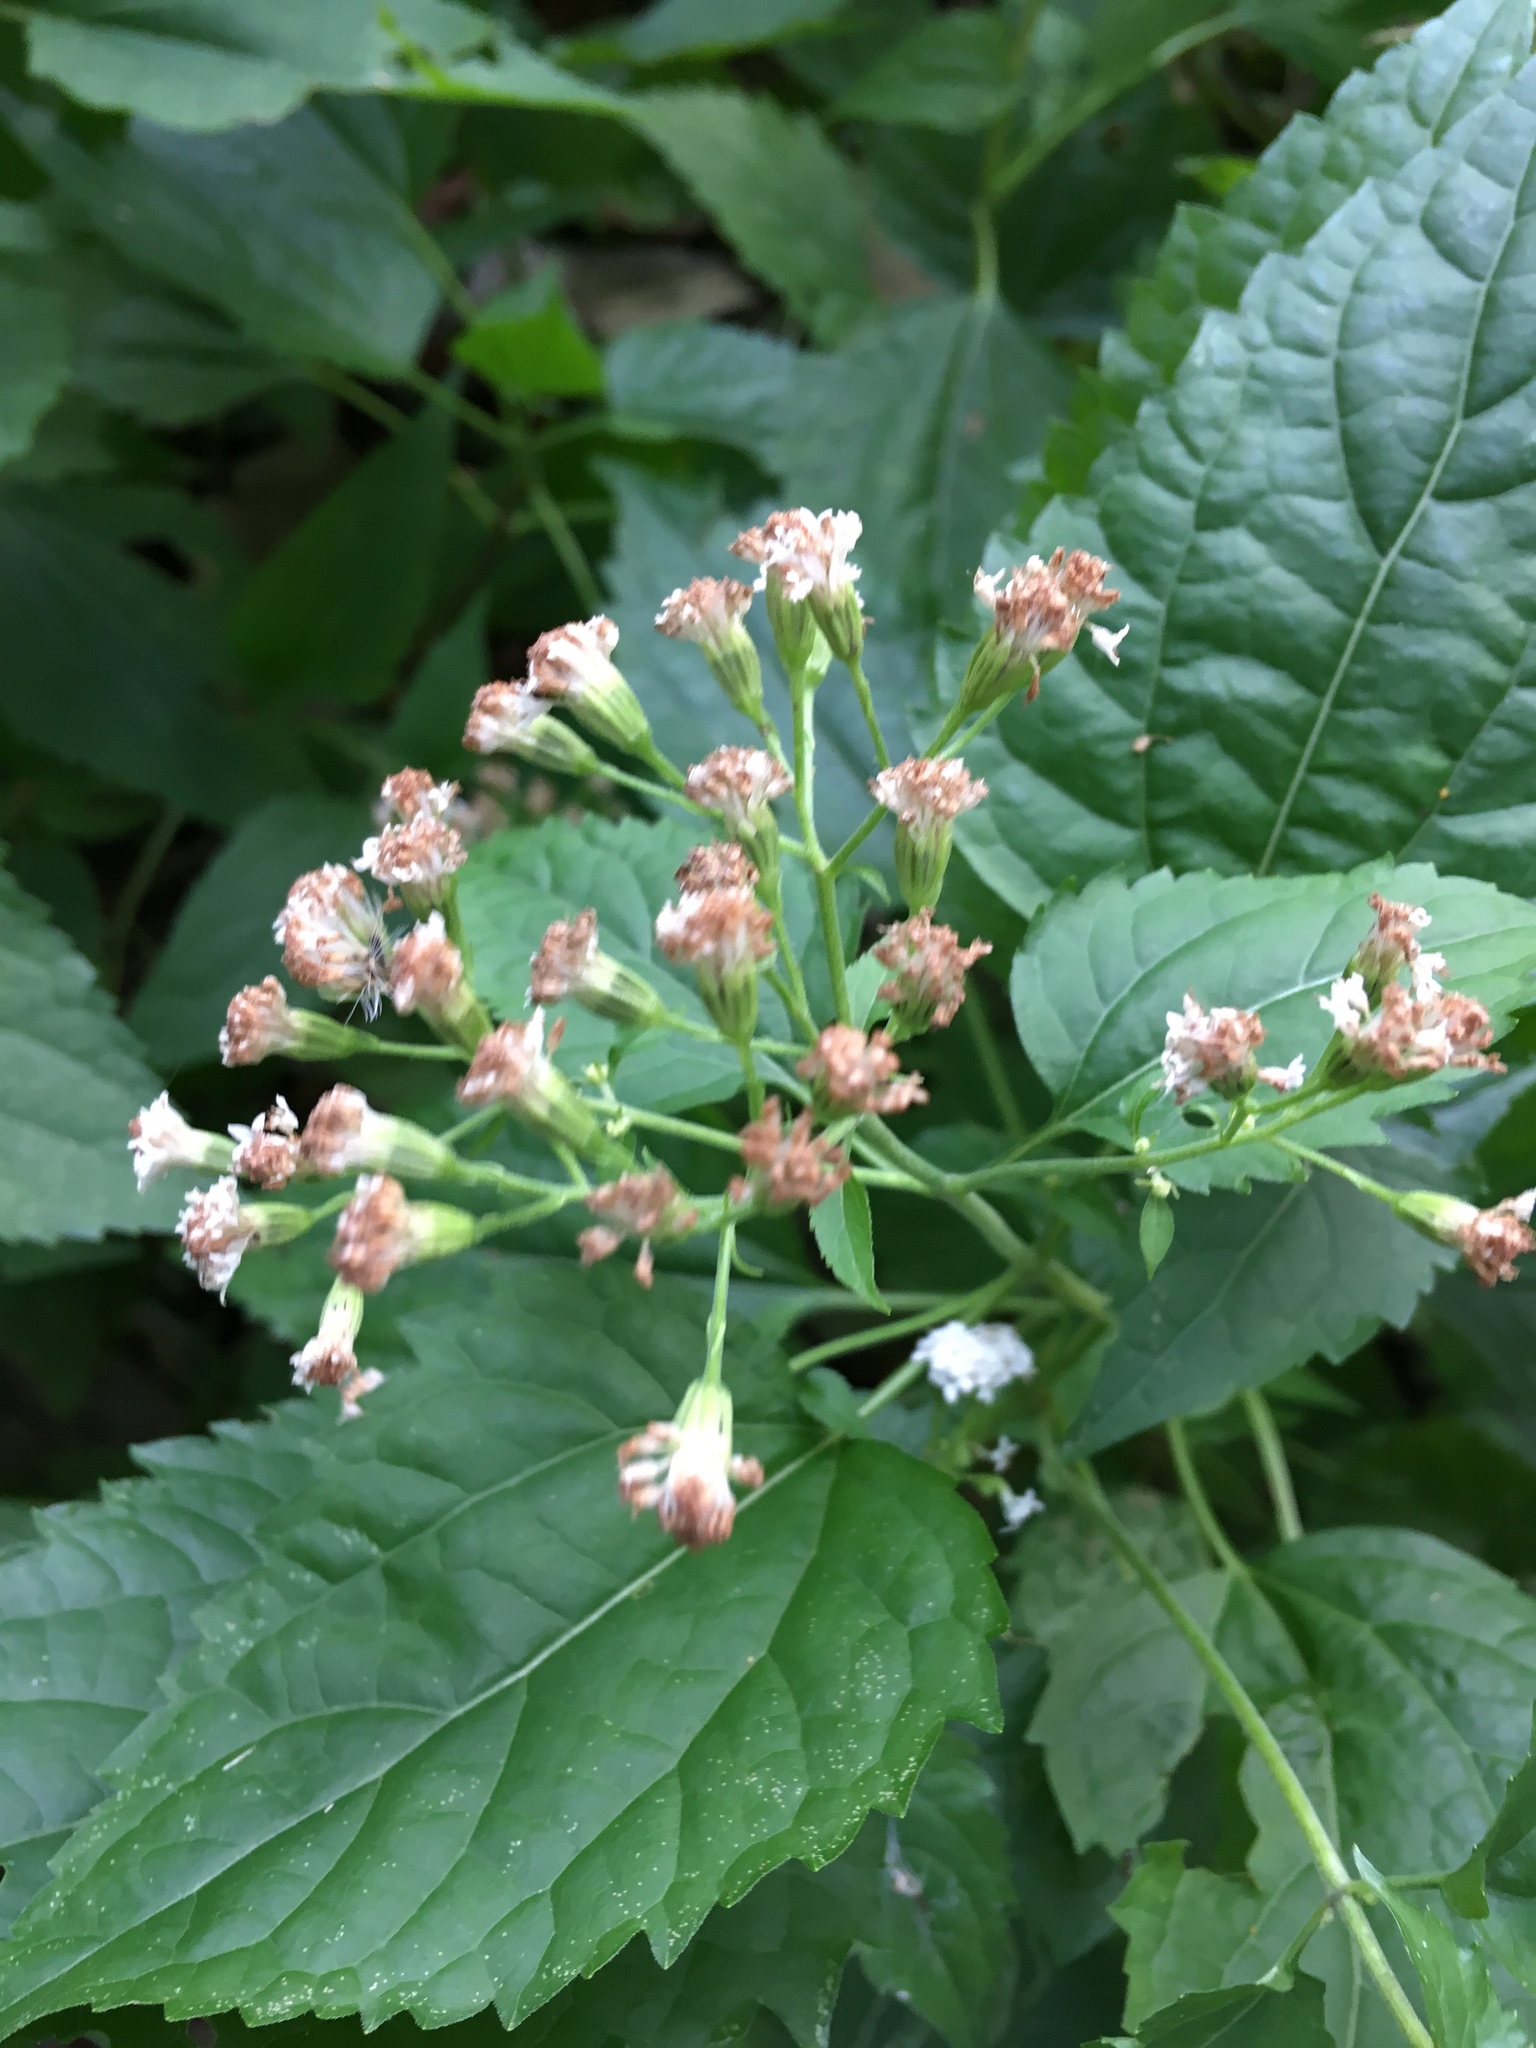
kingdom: Plantae
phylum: Tracheophyta
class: Magnoliopsida
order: Asterales
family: Asteraceae
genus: Ageratina
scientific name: Ageratina altissima
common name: White snakeroot
